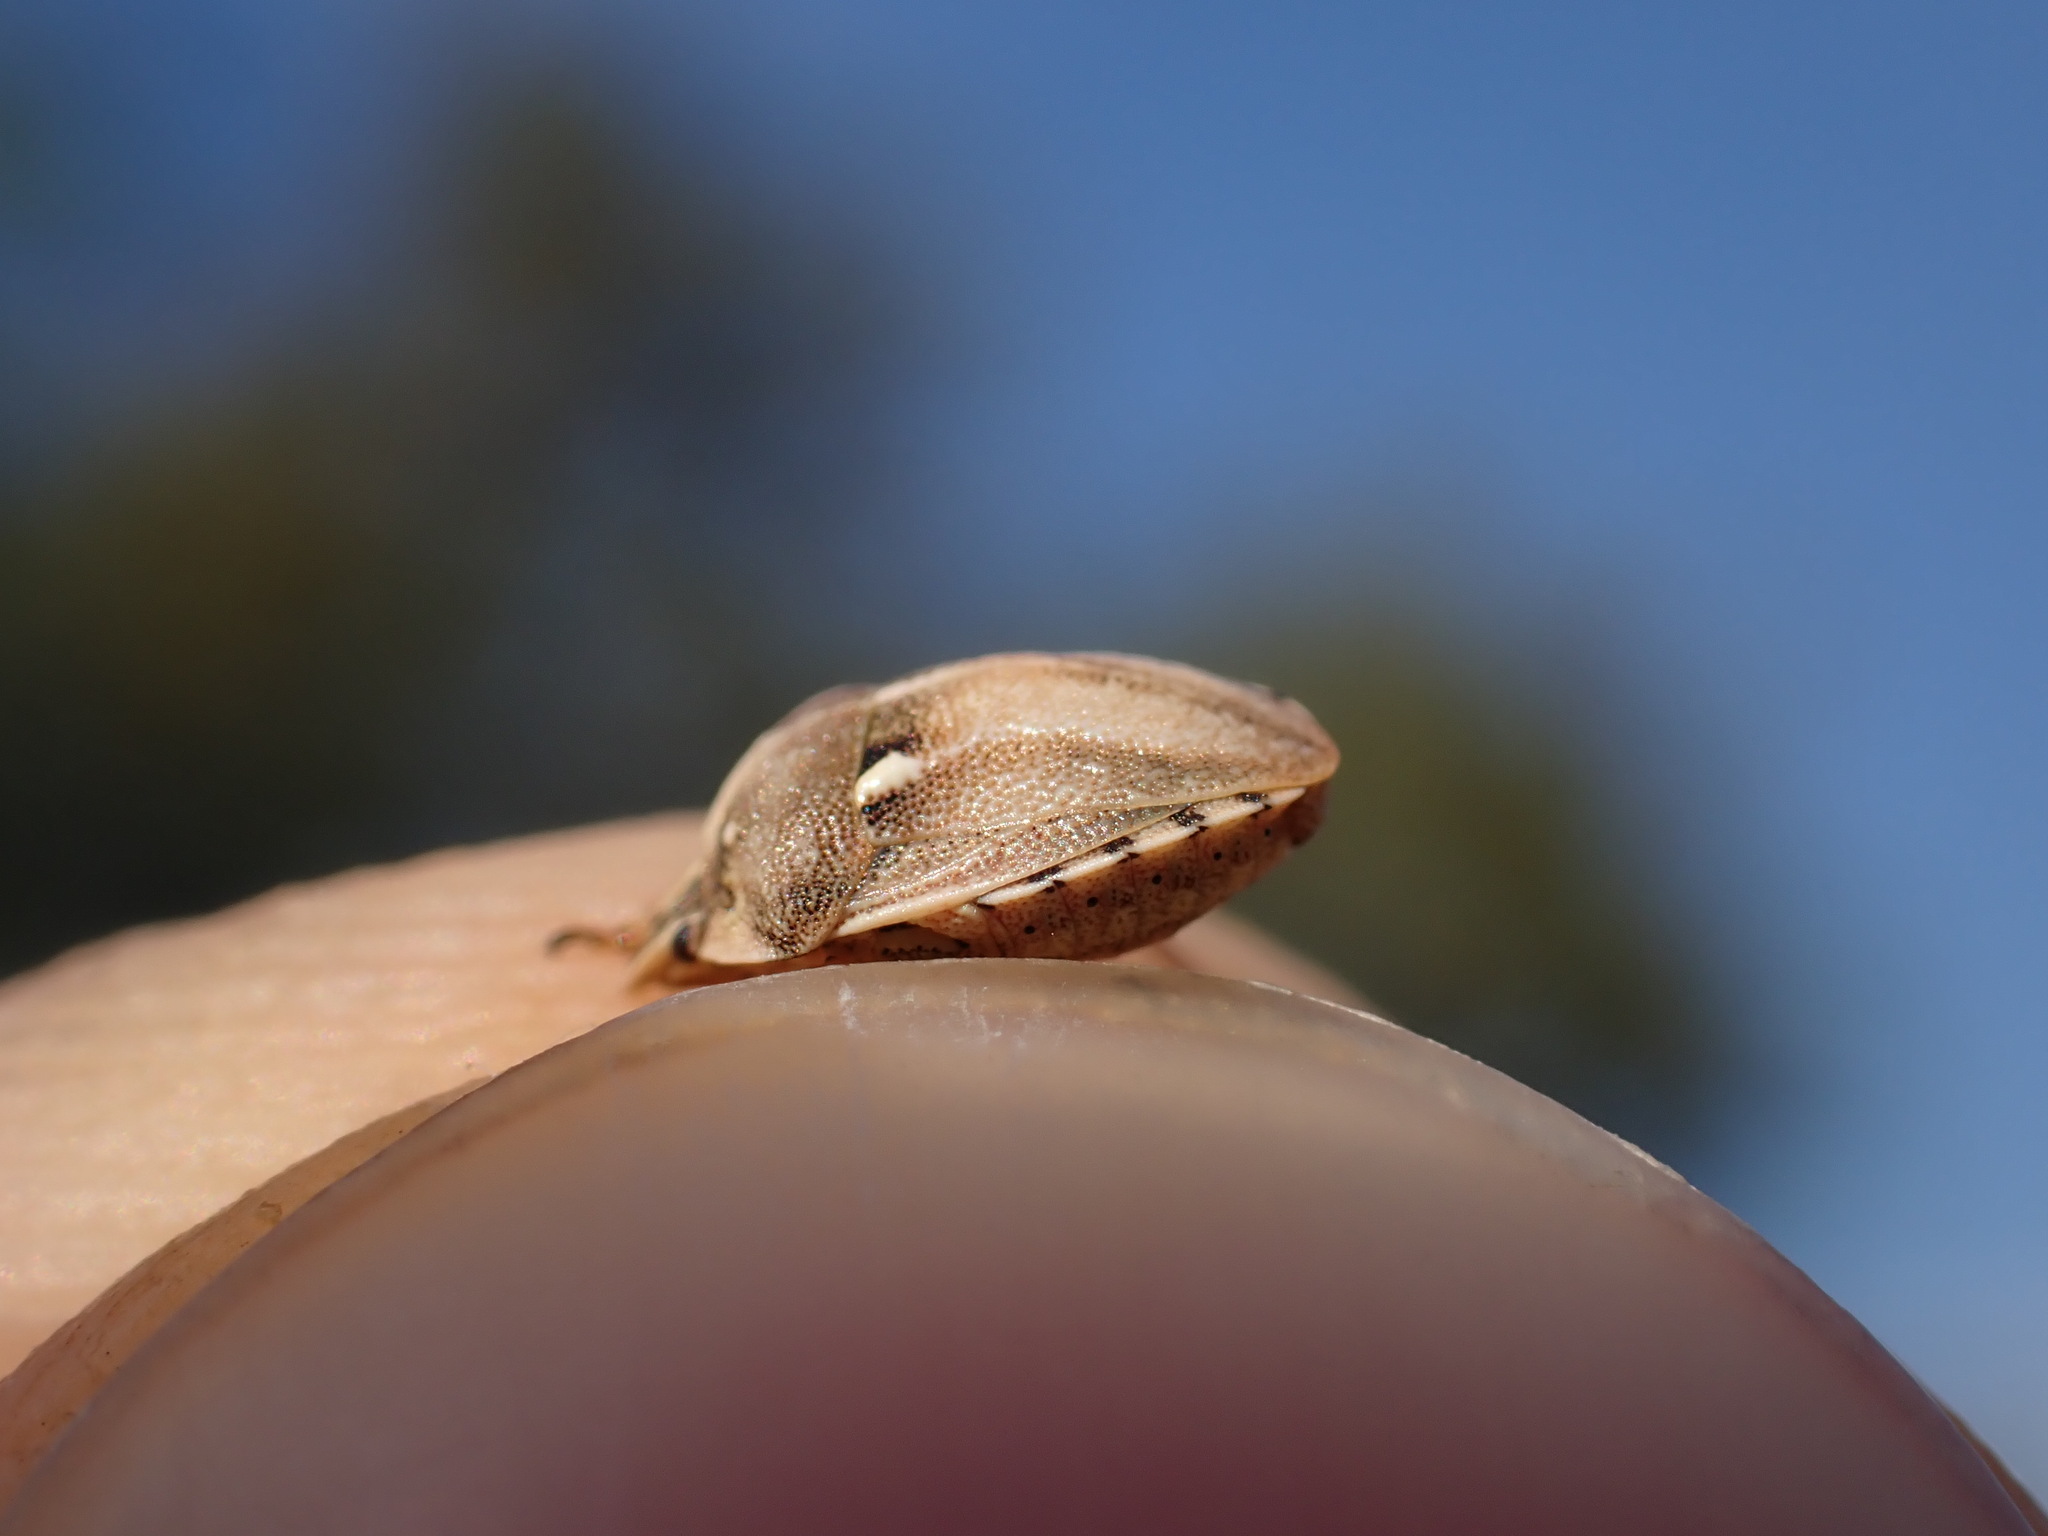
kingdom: Animalia
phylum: Arthropoda
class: Insecta
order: Hemiptera
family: Pentatomidae
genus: Derula
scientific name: Derula flavoguttata
